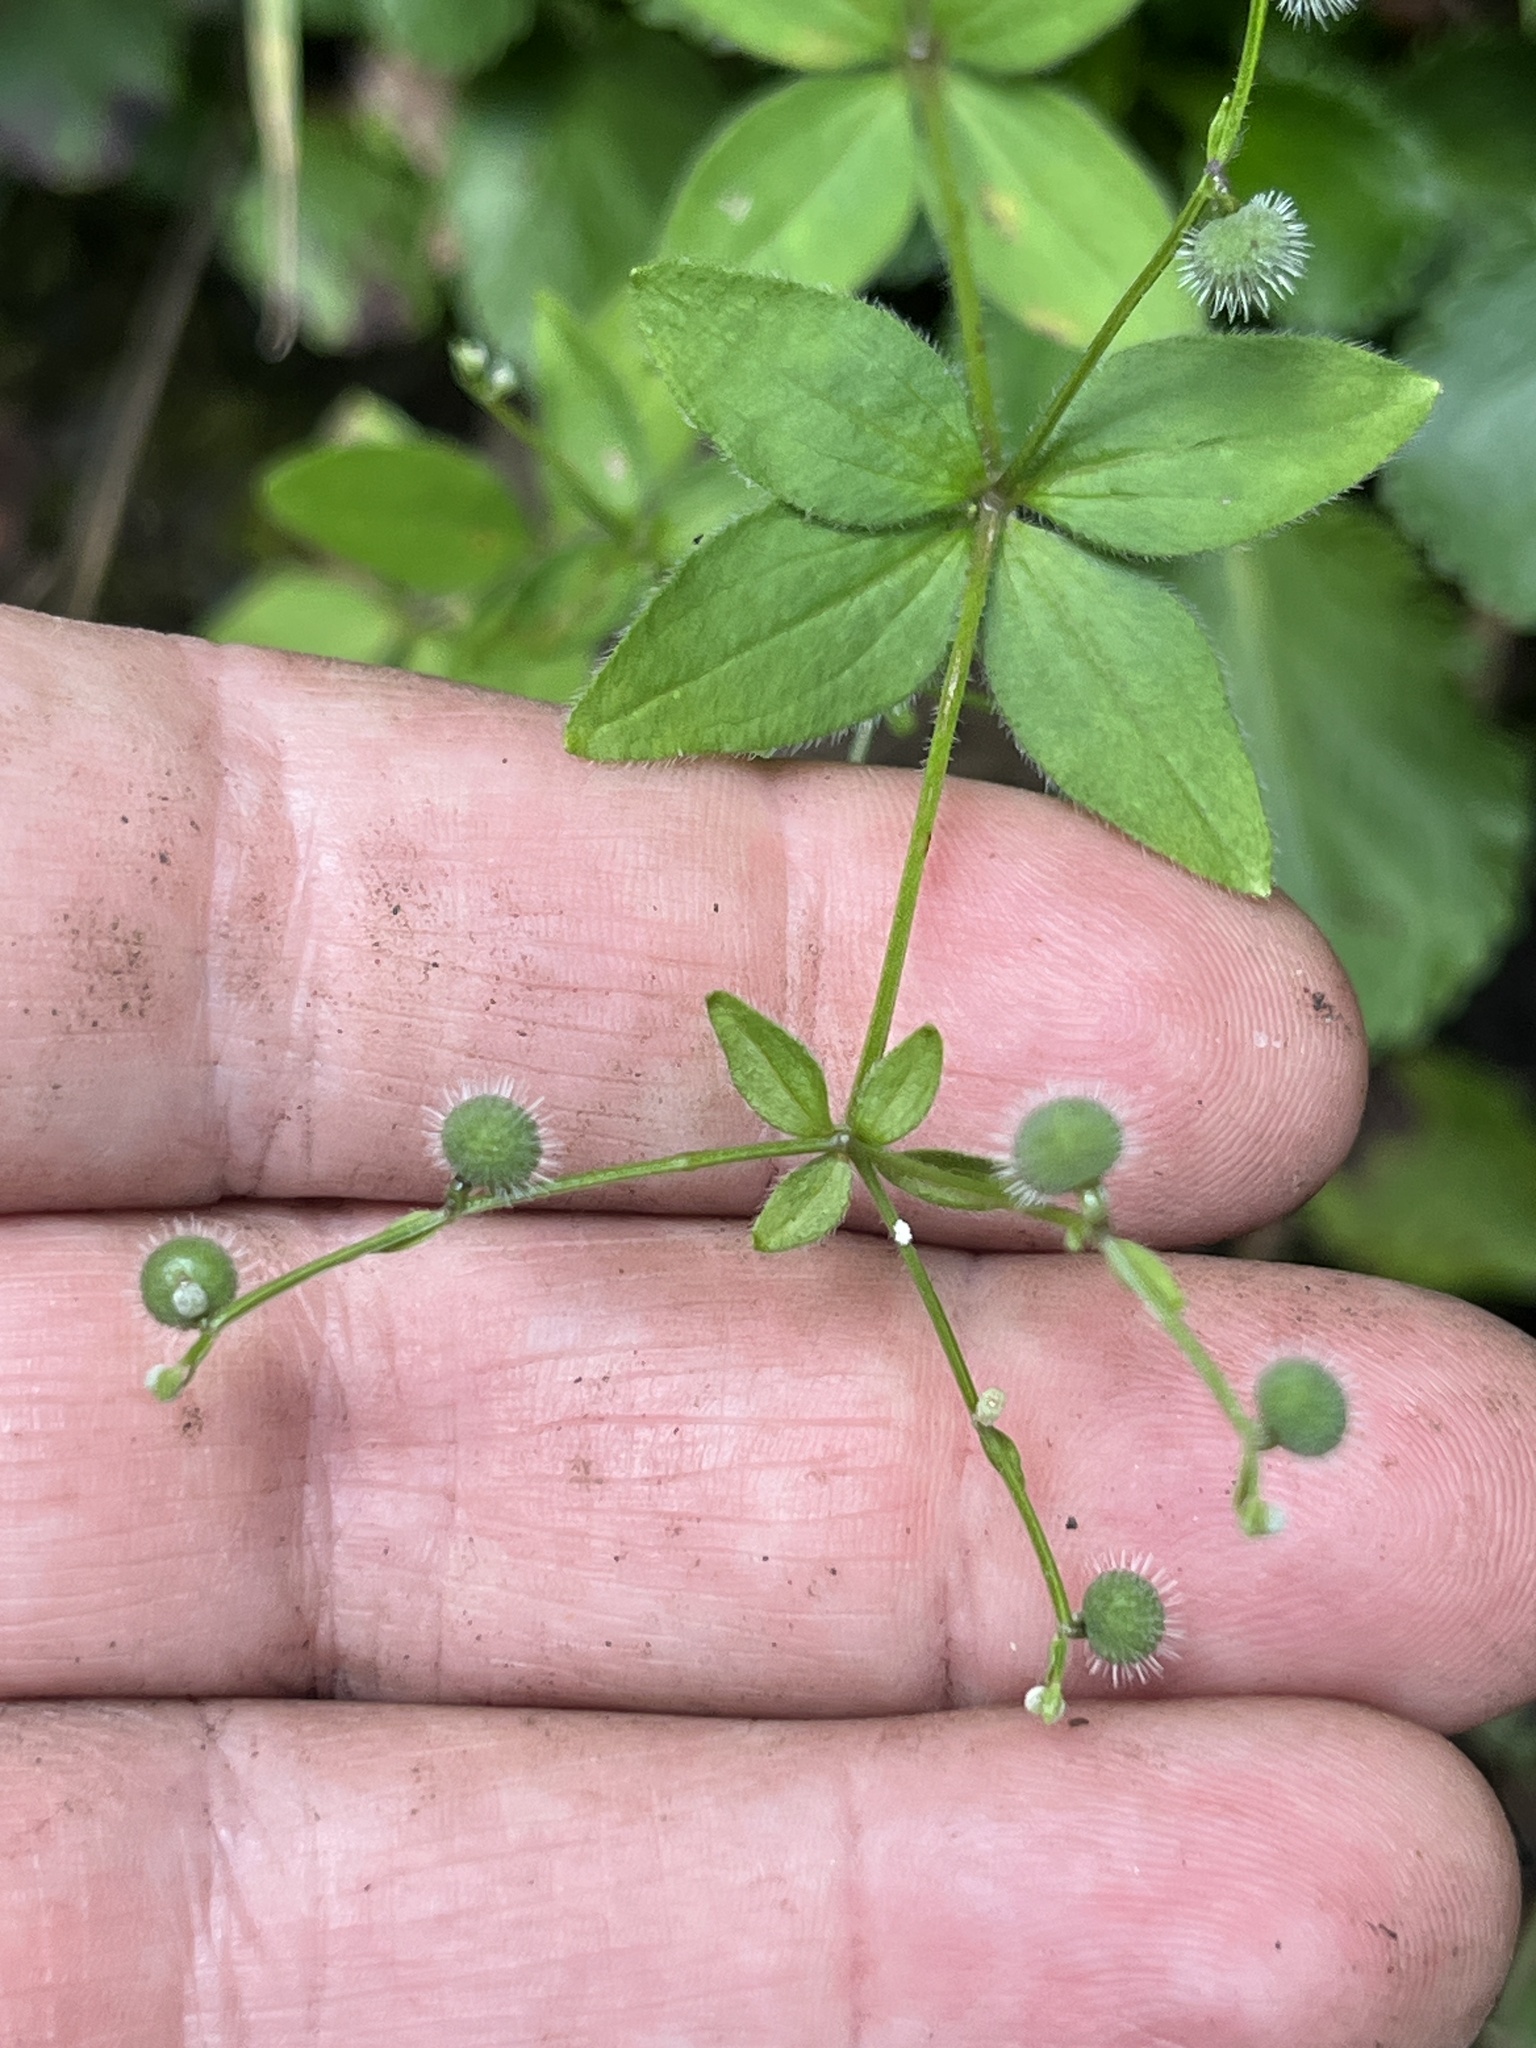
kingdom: Plantae
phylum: Tracheophyta
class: Magnoliopsida
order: Gentianales
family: Rubiaceae
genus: Galium
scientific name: Galium circaezans
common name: Forest bedstraw
